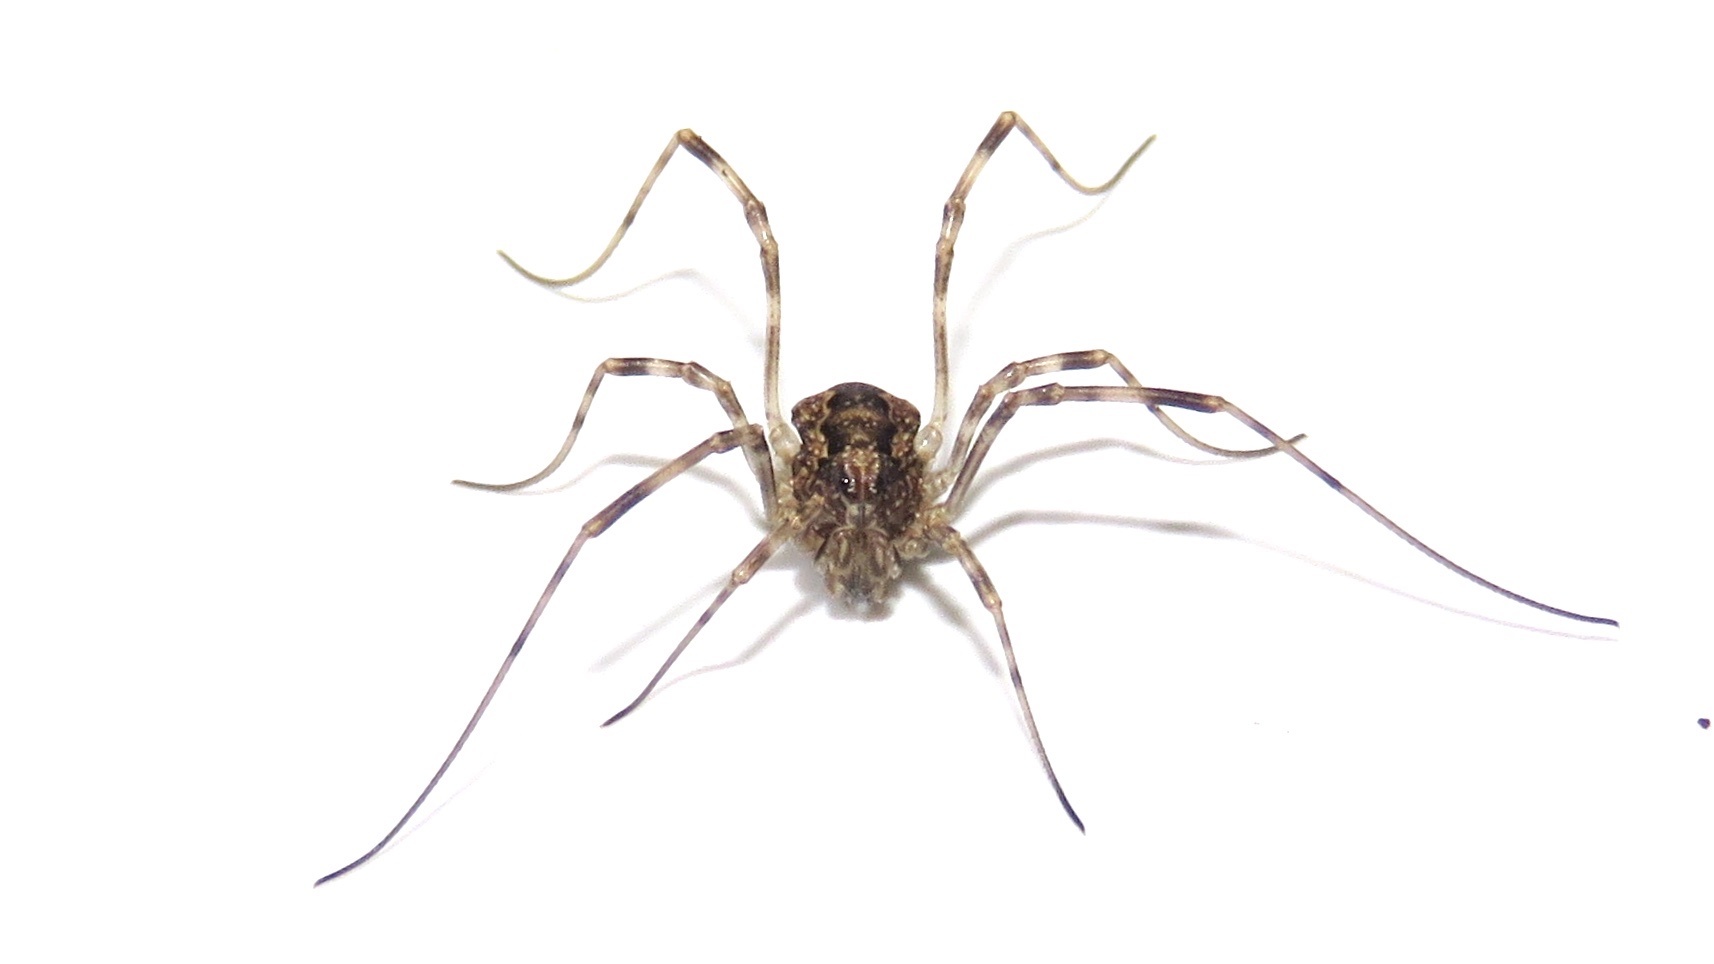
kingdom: Animalia
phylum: Arthropoda
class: Arachnida
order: Opiliones
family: Phalangiidae
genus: Rilaena
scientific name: Rilaena triangularis
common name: Spring harvestman
